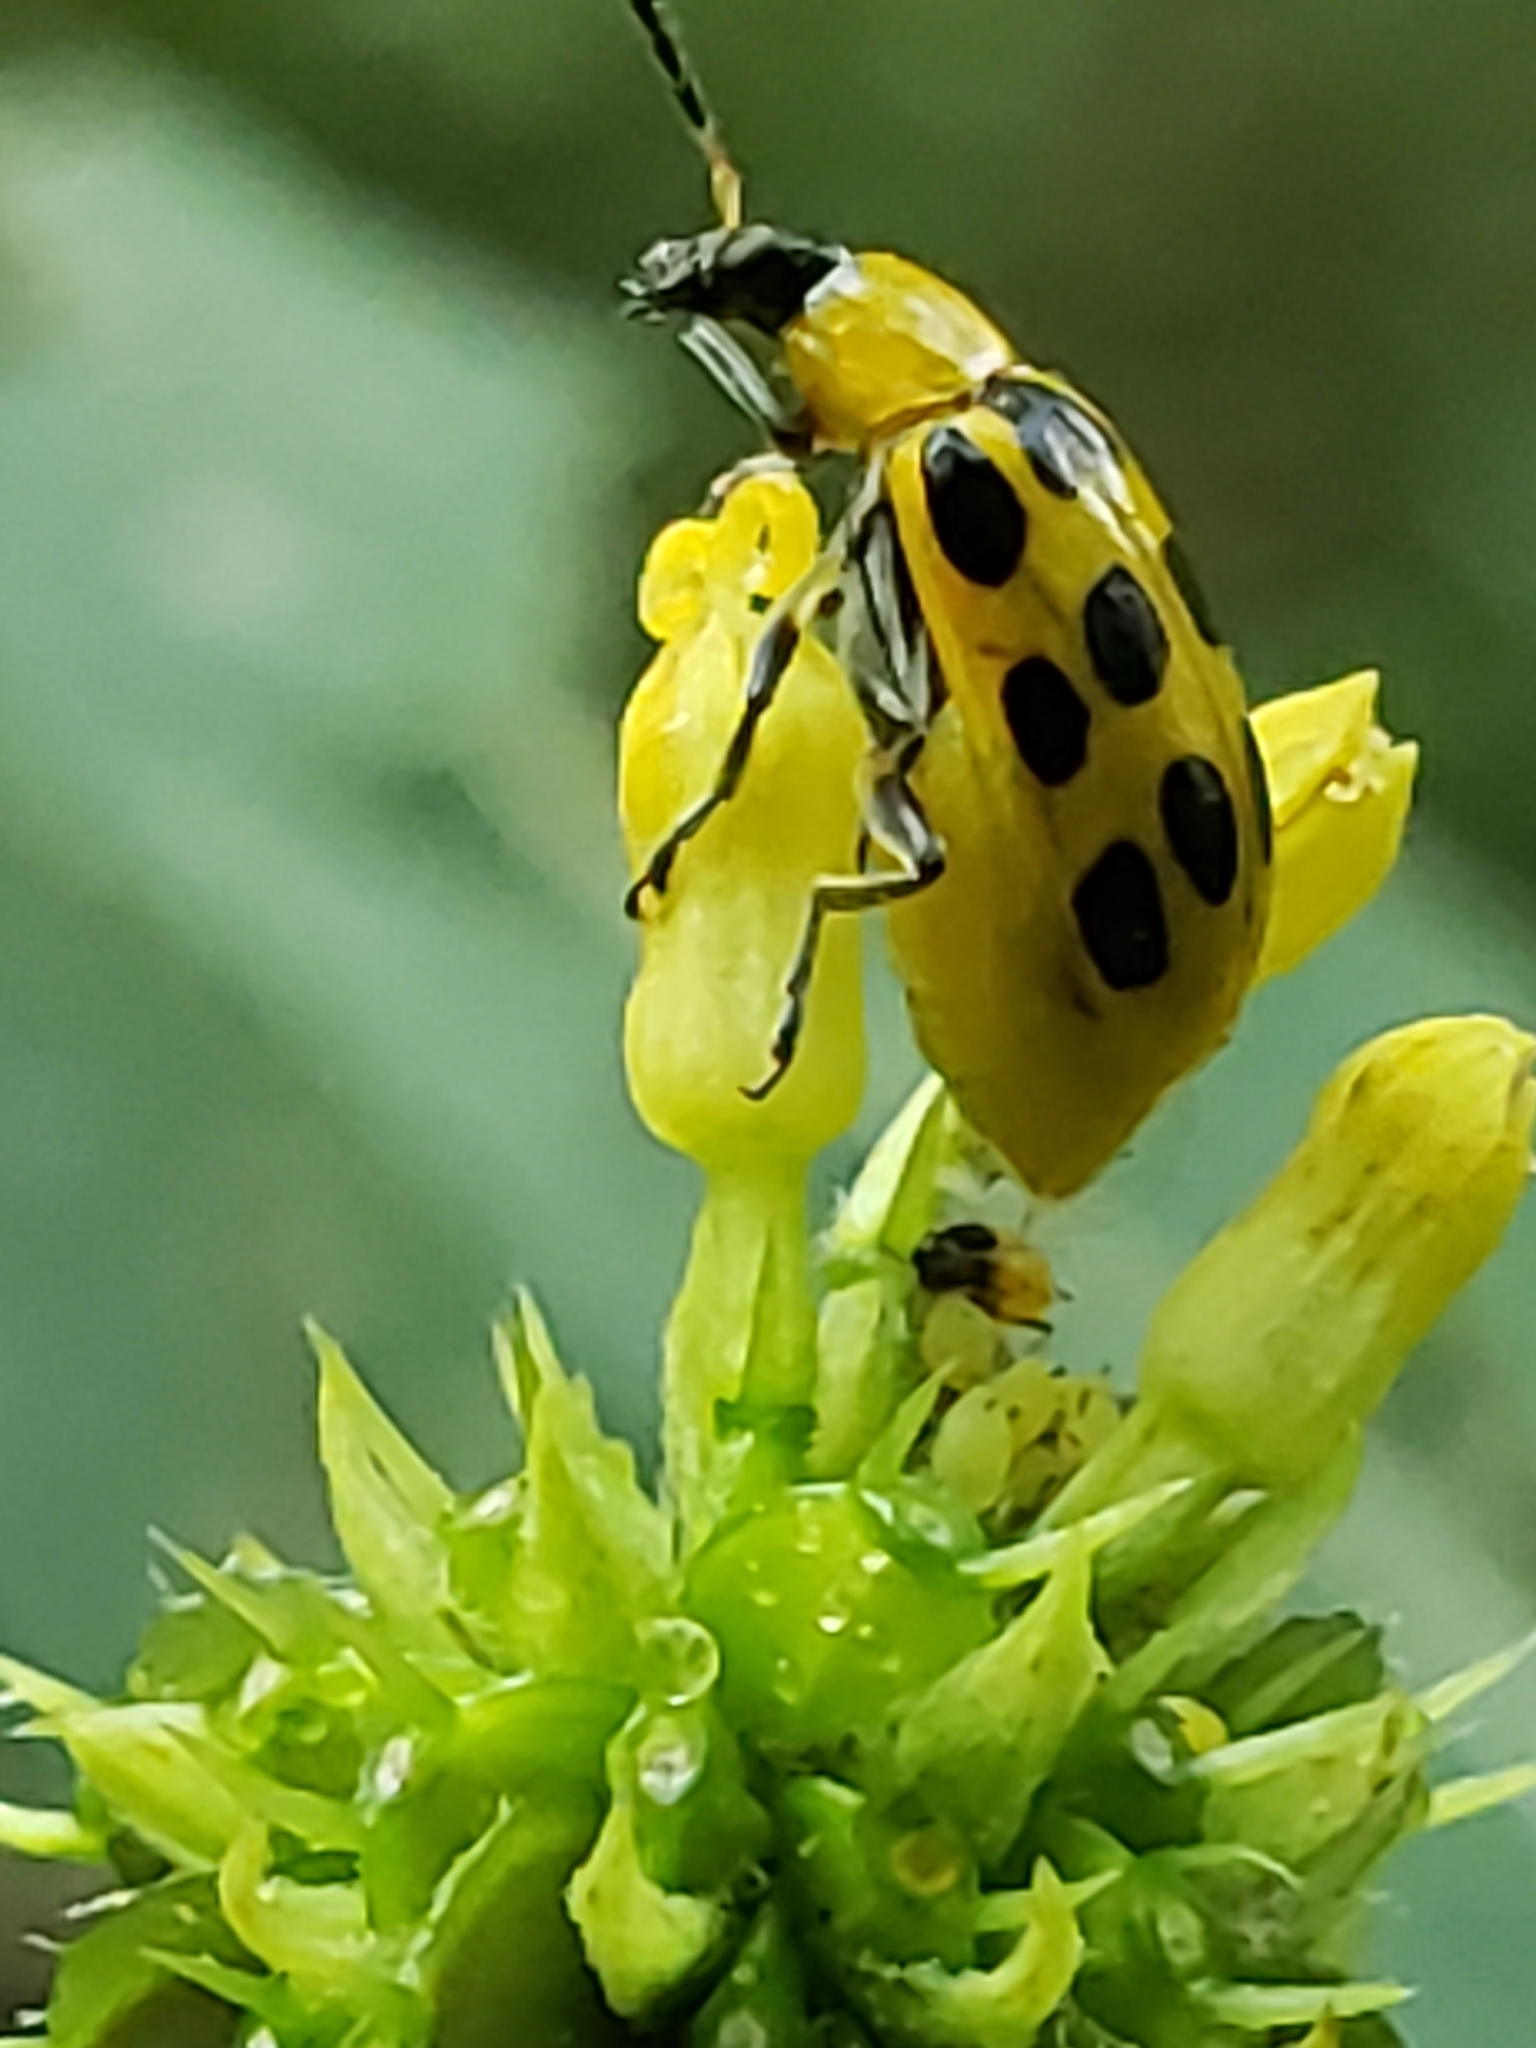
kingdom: Animalia
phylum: Arthropoda
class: Insecta
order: Coleoptera
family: Chrysomelidae
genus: Diabrotica
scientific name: Diabrotica undecimpunctata
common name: Spotted cucumber beetle
